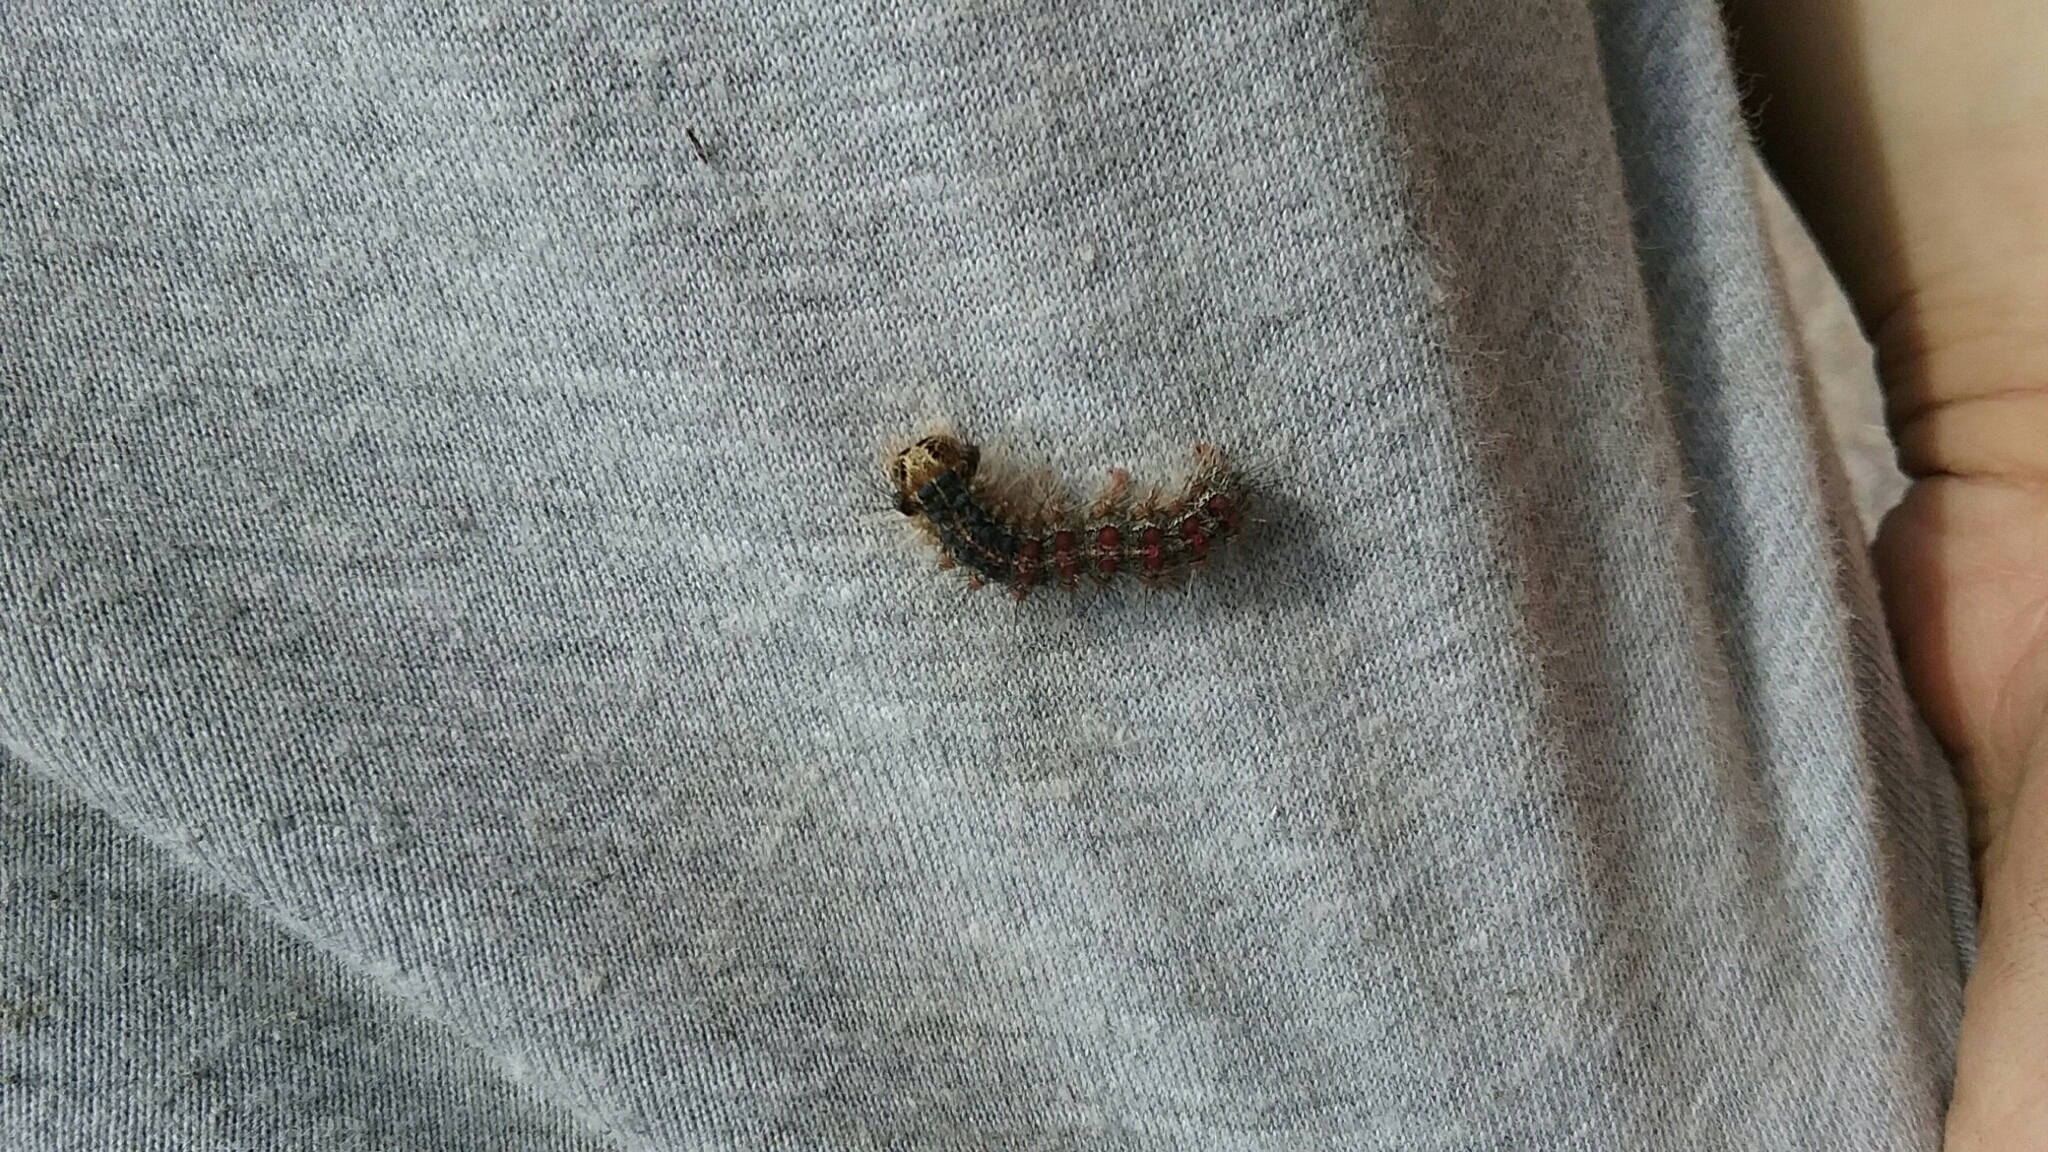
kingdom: Animalia
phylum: Arthropoda
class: Insecta
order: Lepidoptera
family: Erebidae
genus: Lymantria
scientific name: Lymantria dispar
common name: Gypsy moth
